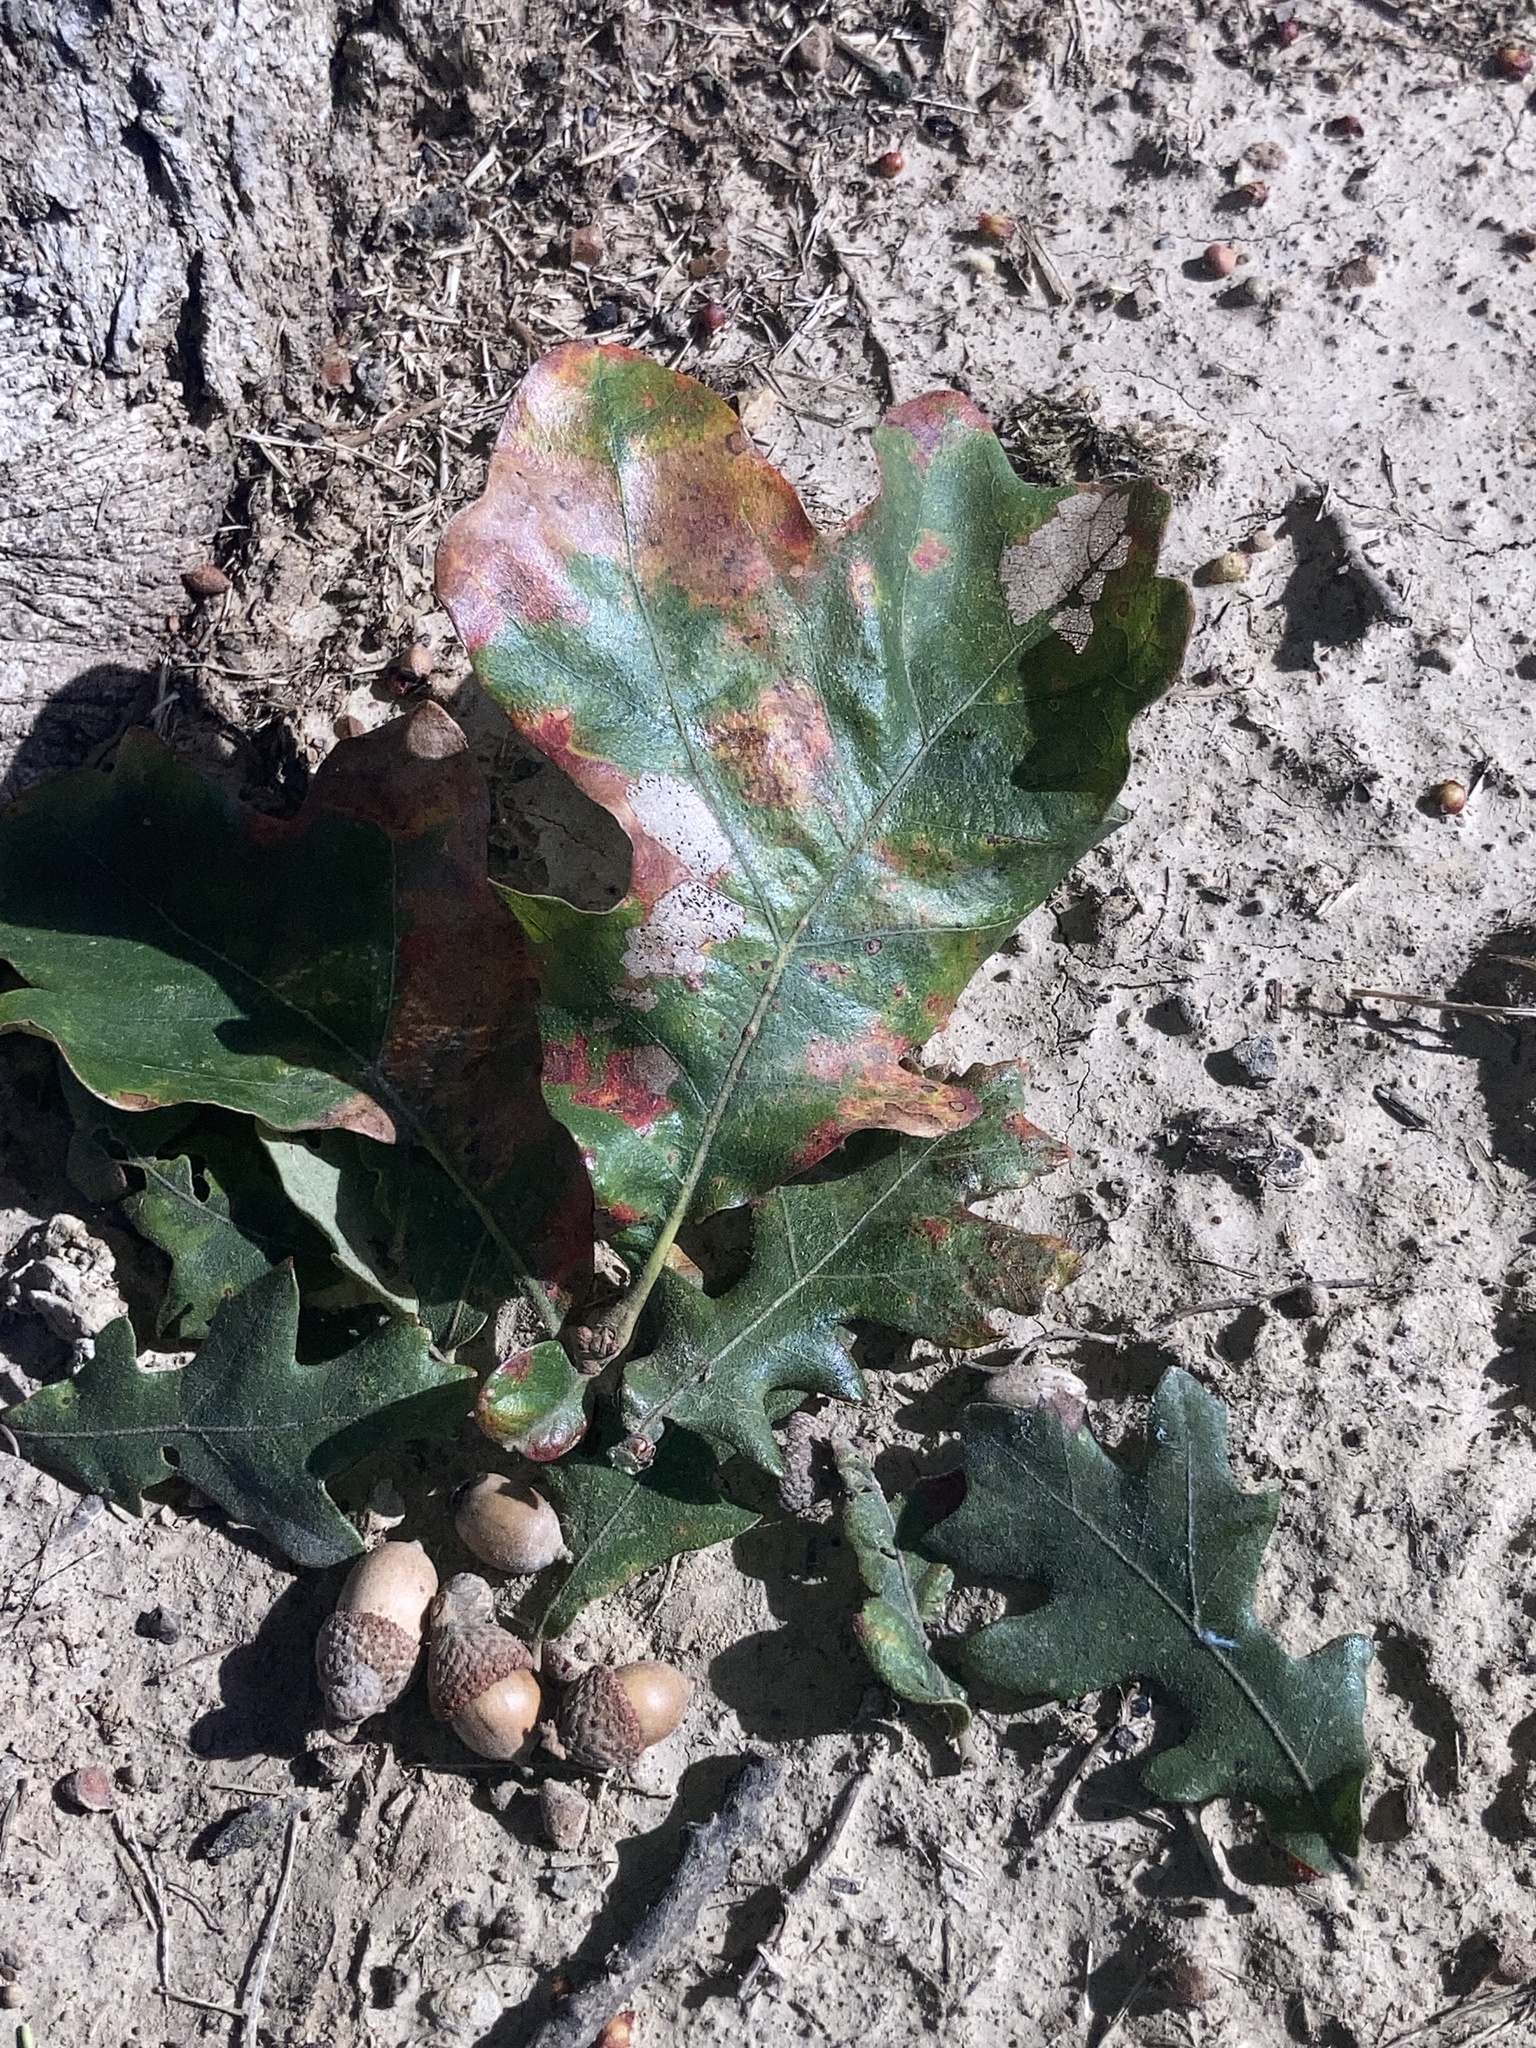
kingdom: Plantae
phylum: Tracheophyta
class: Magnoliopsida
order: Fagales
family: Fagaceae
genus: Quercus
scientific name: Quercus stellata
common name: Post oak
